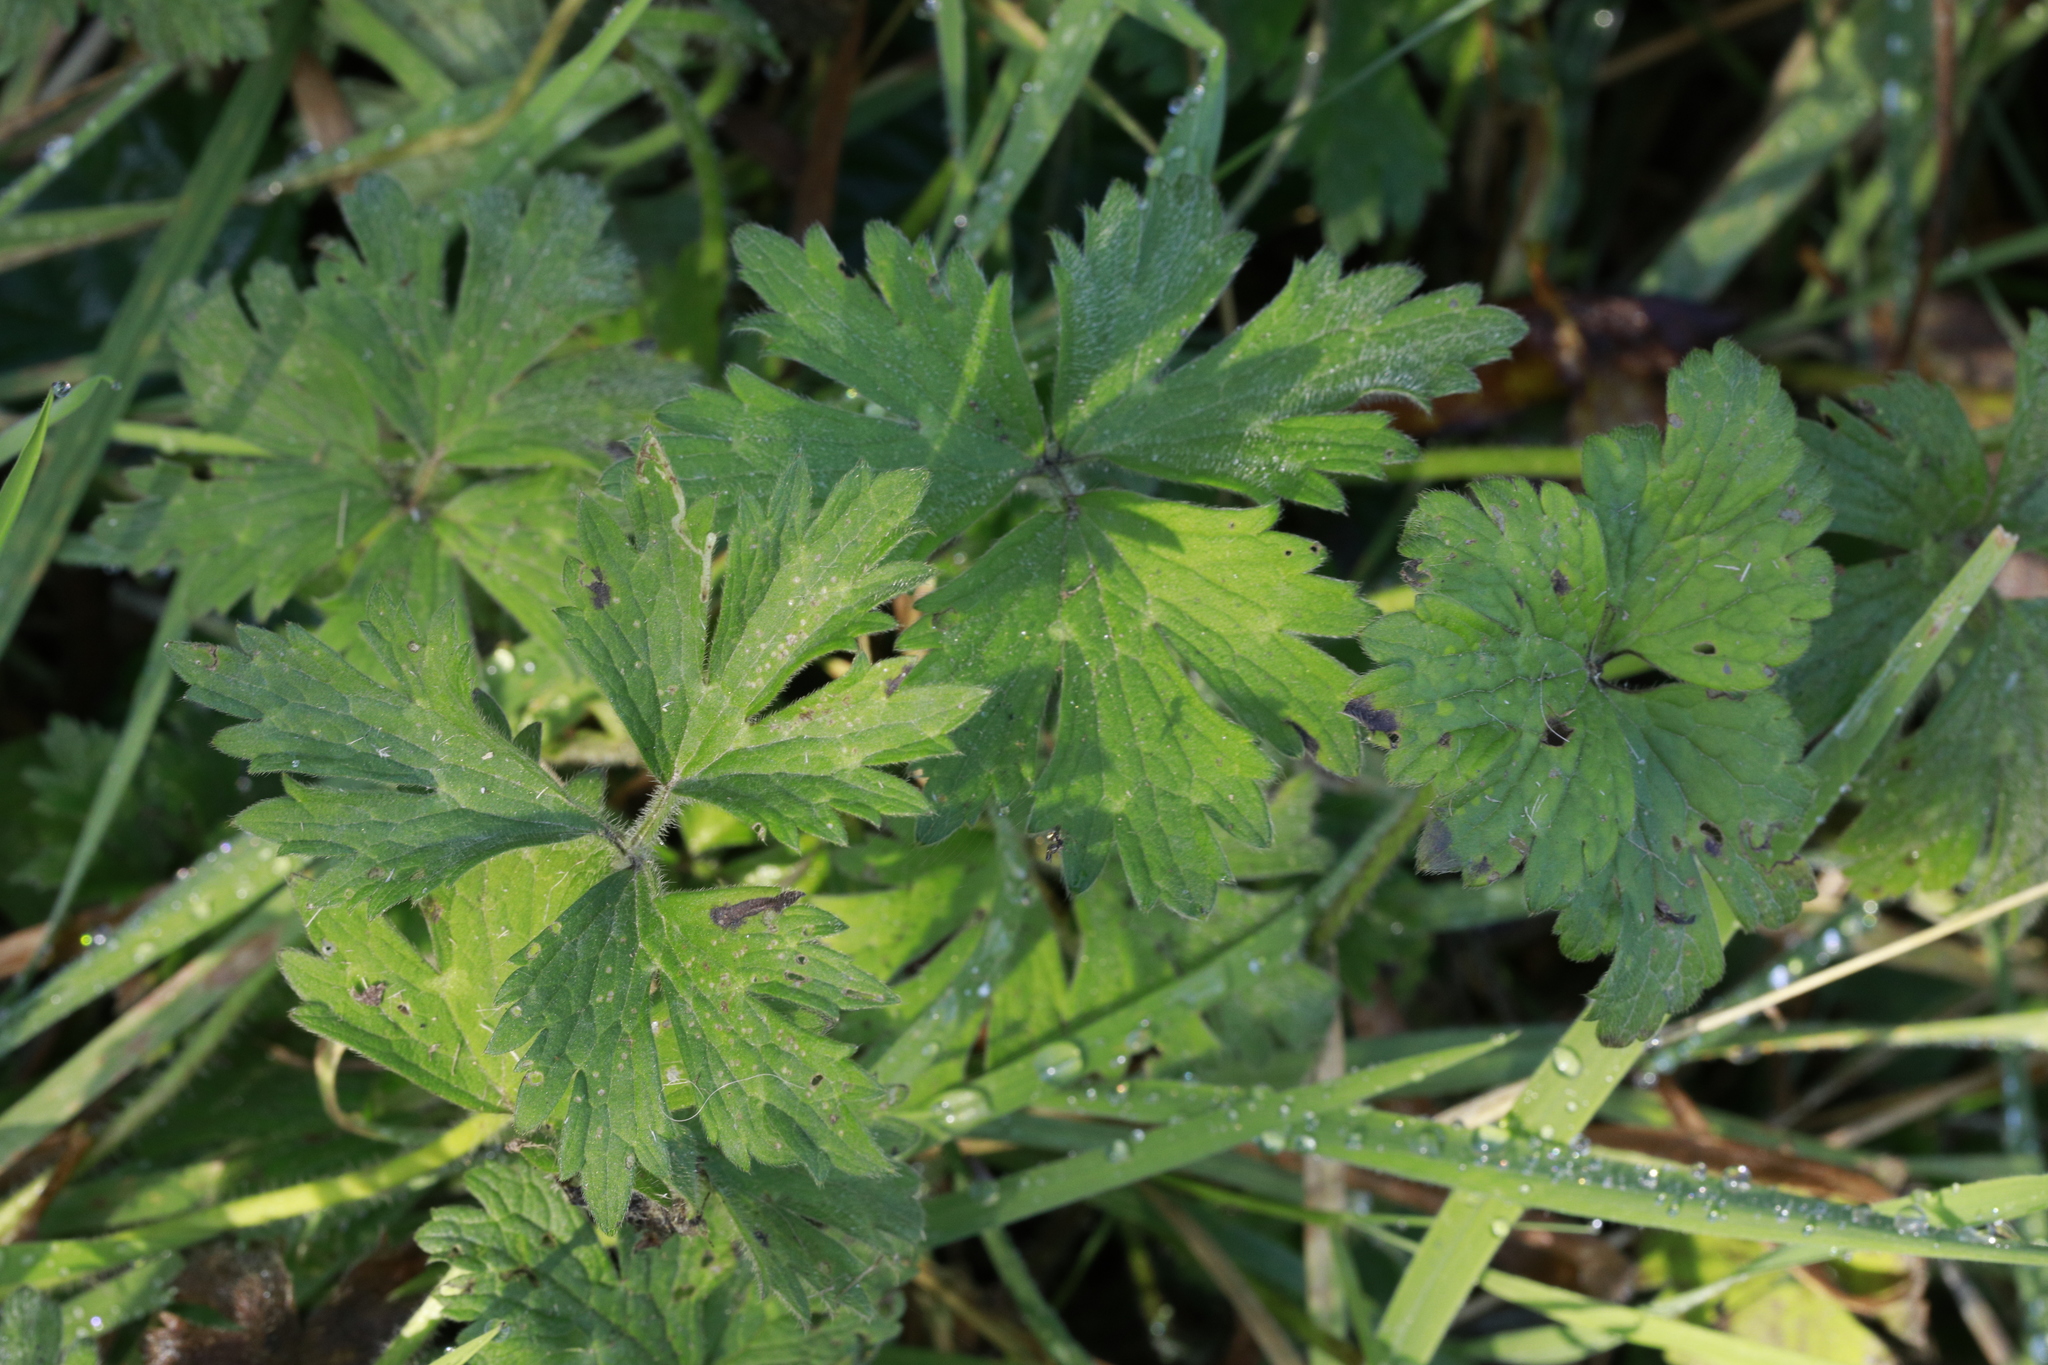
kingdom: Plantae
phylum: Tracheophyta
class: Magnoliopsida
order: Ranunculales
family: Ranunculaceae
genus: Ranunculus
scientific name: Ranunculus repens
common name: Creeping buttercup
